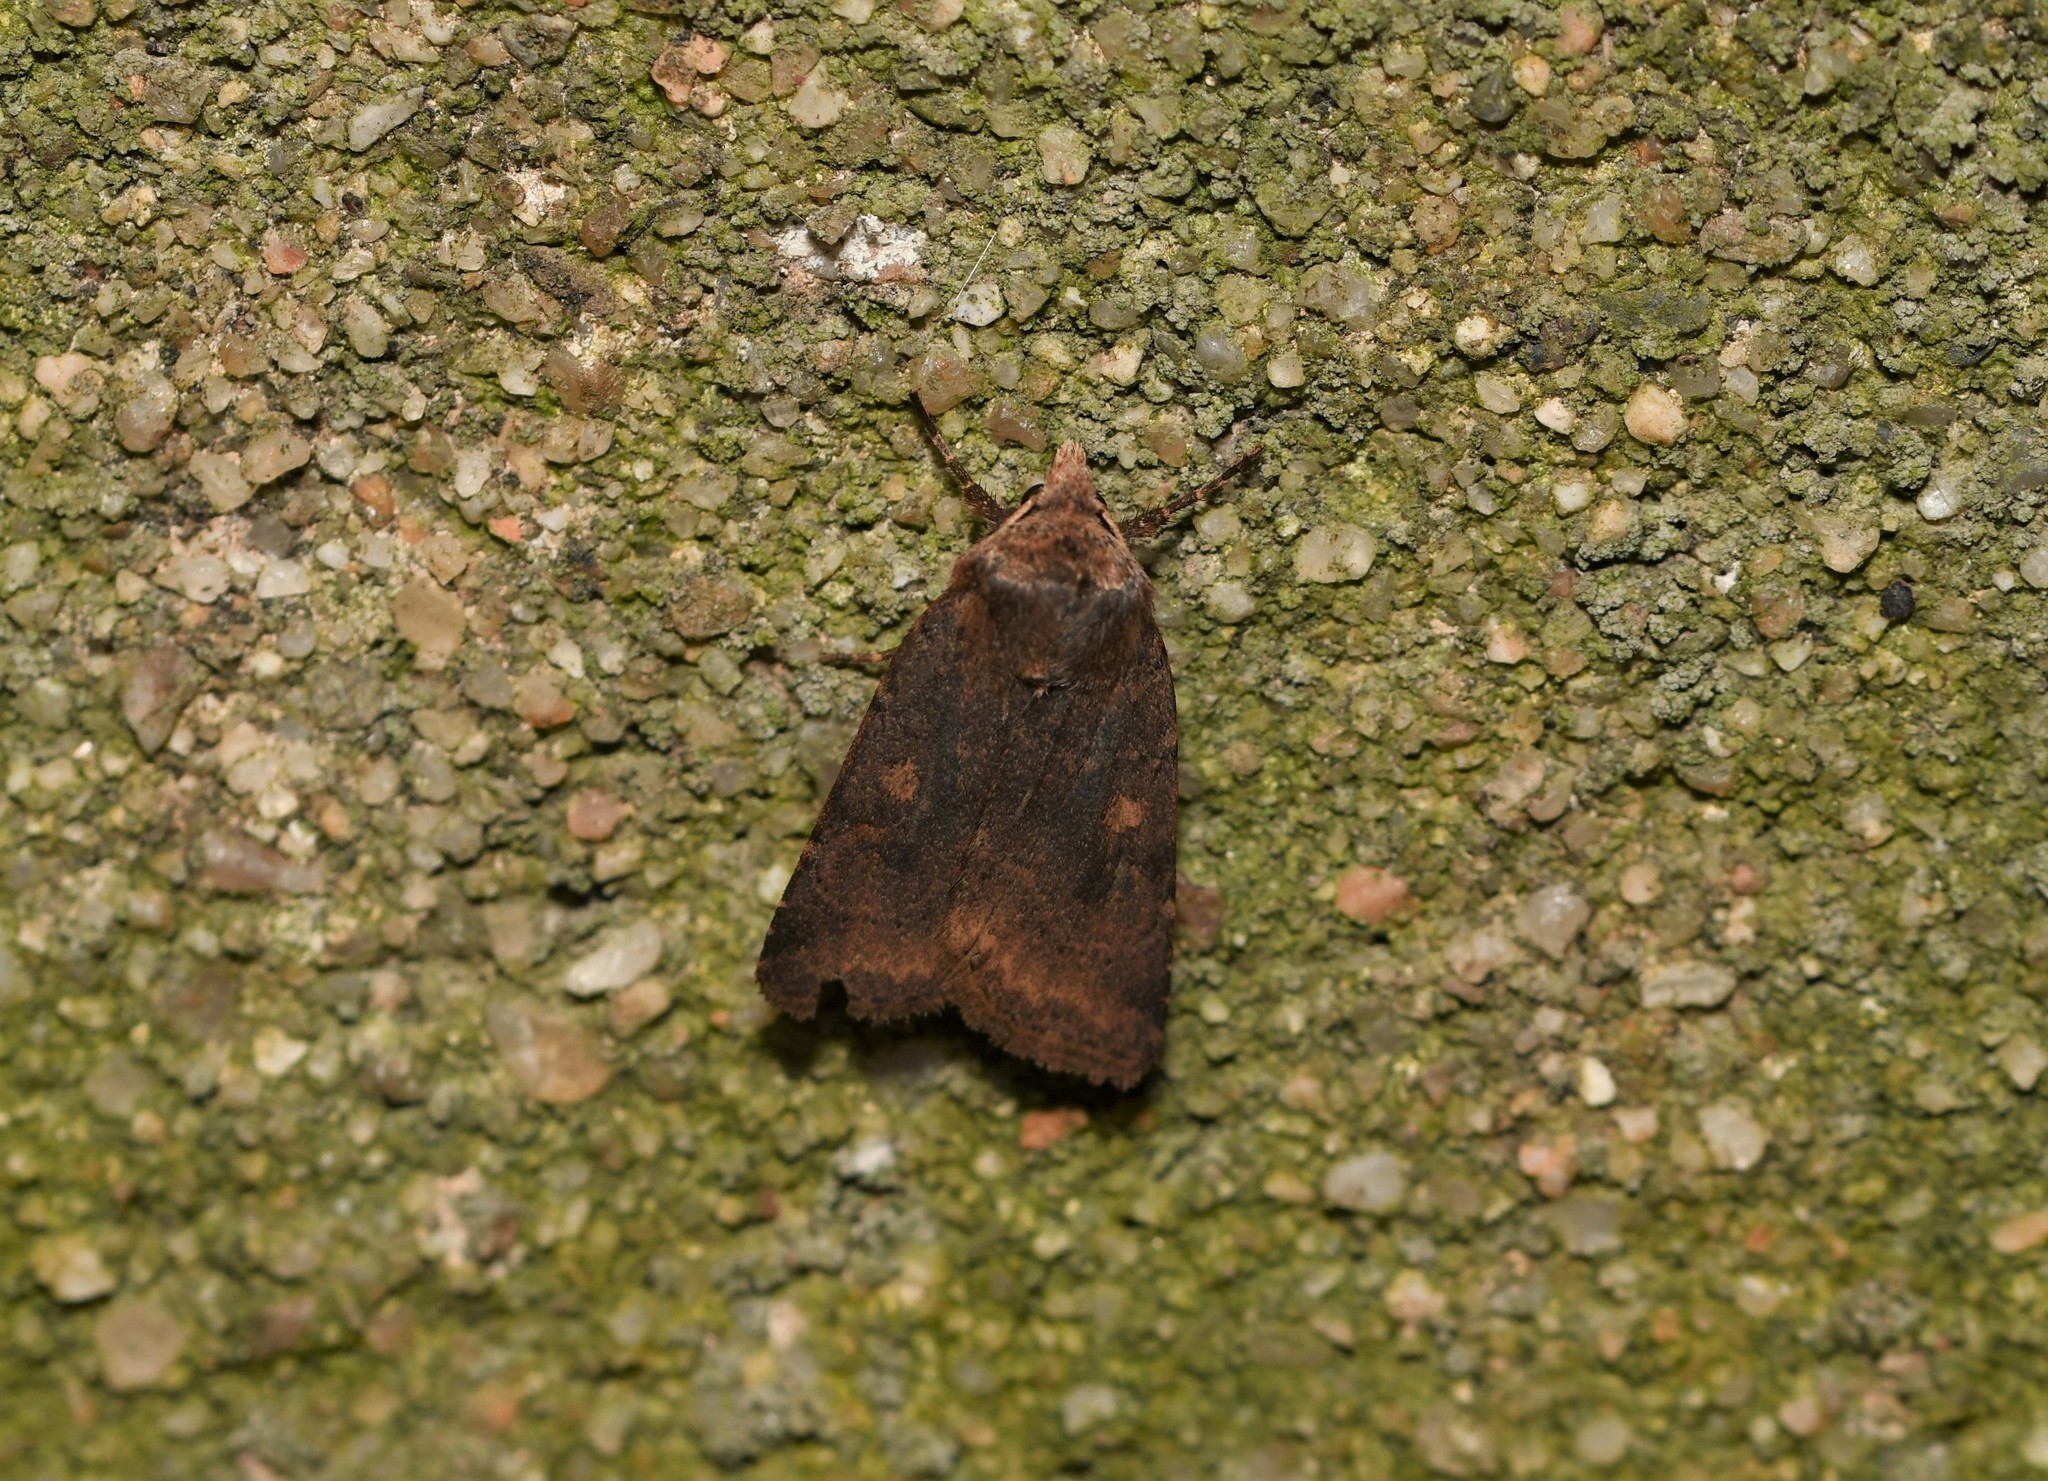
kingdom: Animalia
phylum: Arthropoda
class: Insecta
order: Lepidoptera
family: Noctuidae
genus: Cerastis
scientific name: Cerastis faceta
